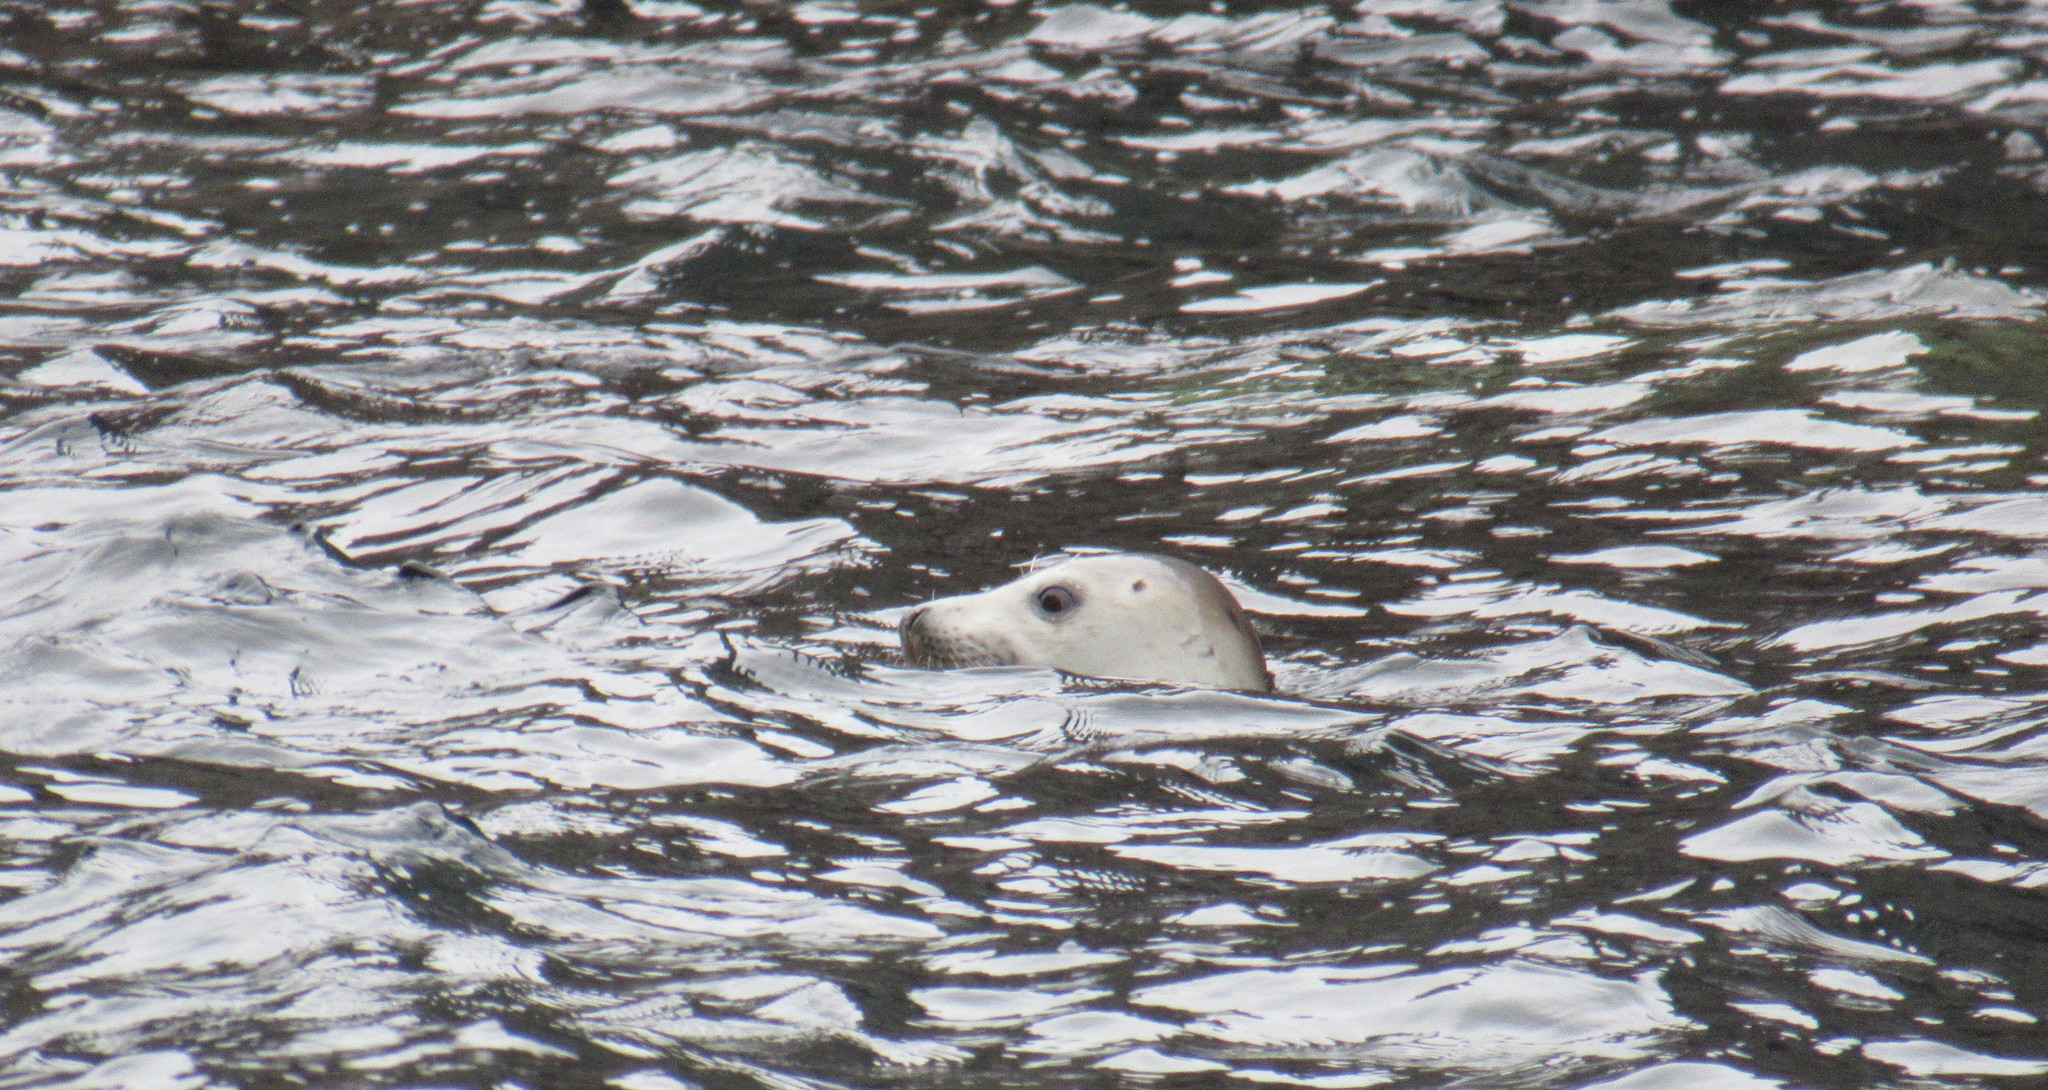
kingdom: Animalia
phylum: Chordata
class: Mammalia
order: Carnivora
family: Phocidae
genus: Halichoerus
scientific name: Halichoerus grypus
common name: Grey seal
